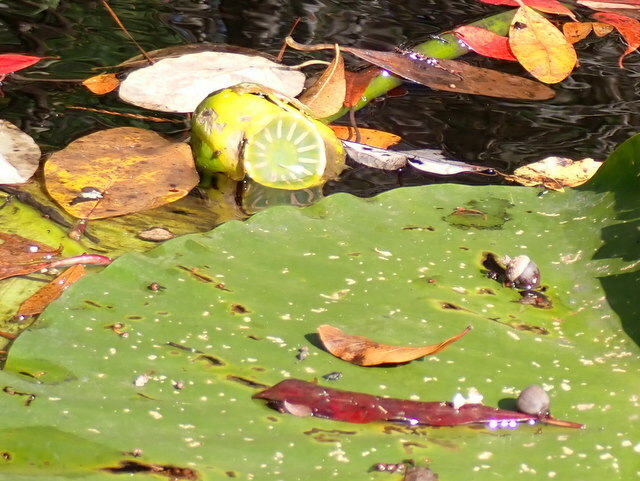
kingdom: Plantae
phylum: Tracheophyta
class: Magnoliopsida
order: Nymphaeales
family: Nymphaeaceae
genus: Nuphar
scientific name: Nuphar advena
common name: Spatter-dock
